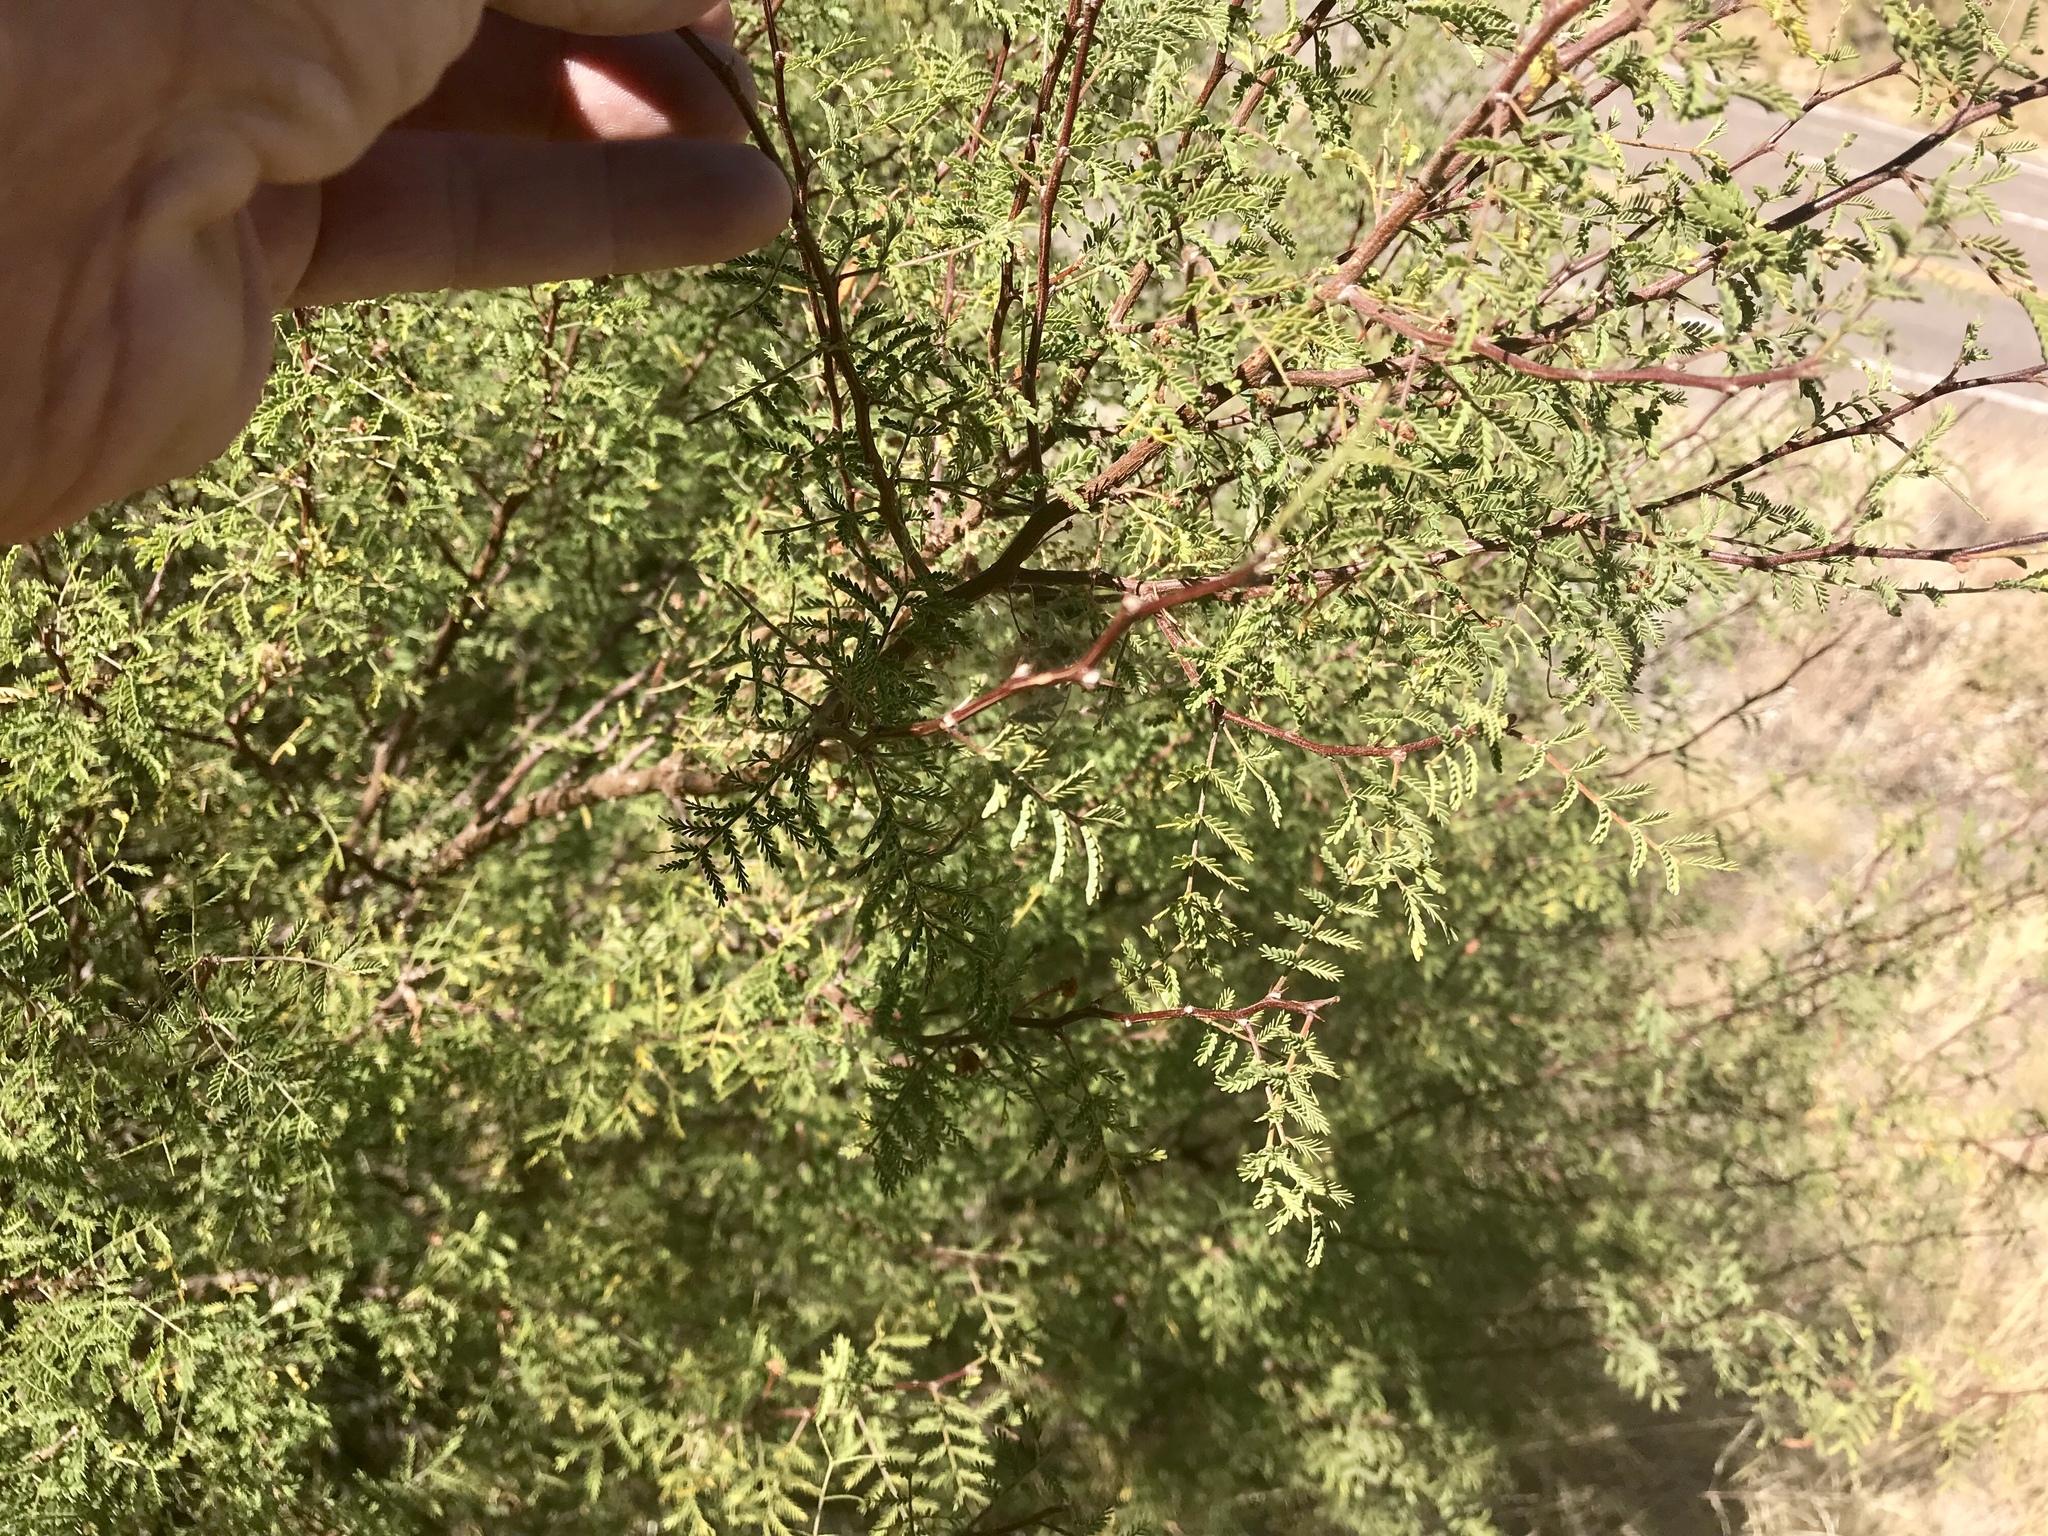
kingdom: Plantae
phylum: Tracheophyta
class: Magnoliopsida
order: Fabales
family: Fabaceae
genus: Vachellia
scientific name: Vachellia constricta
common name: Mescat acacia
